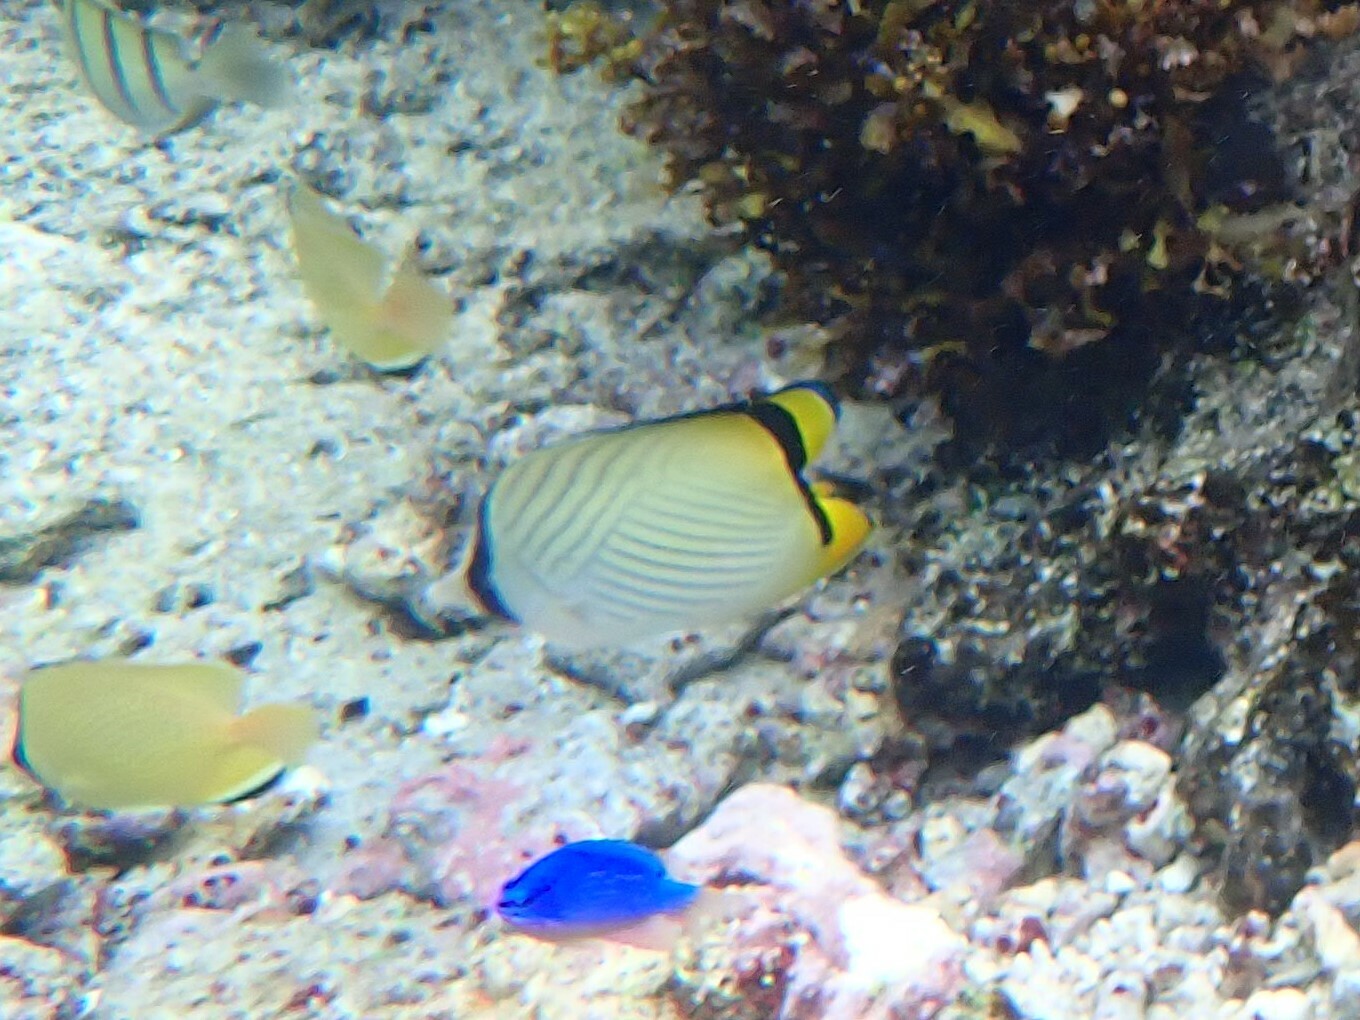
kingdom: Animalia
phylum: Chordata
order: Perciformes
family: Pomacentridae
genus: Chrysiptera
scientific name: Chrysiptera taupou
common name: Fiji damsel
